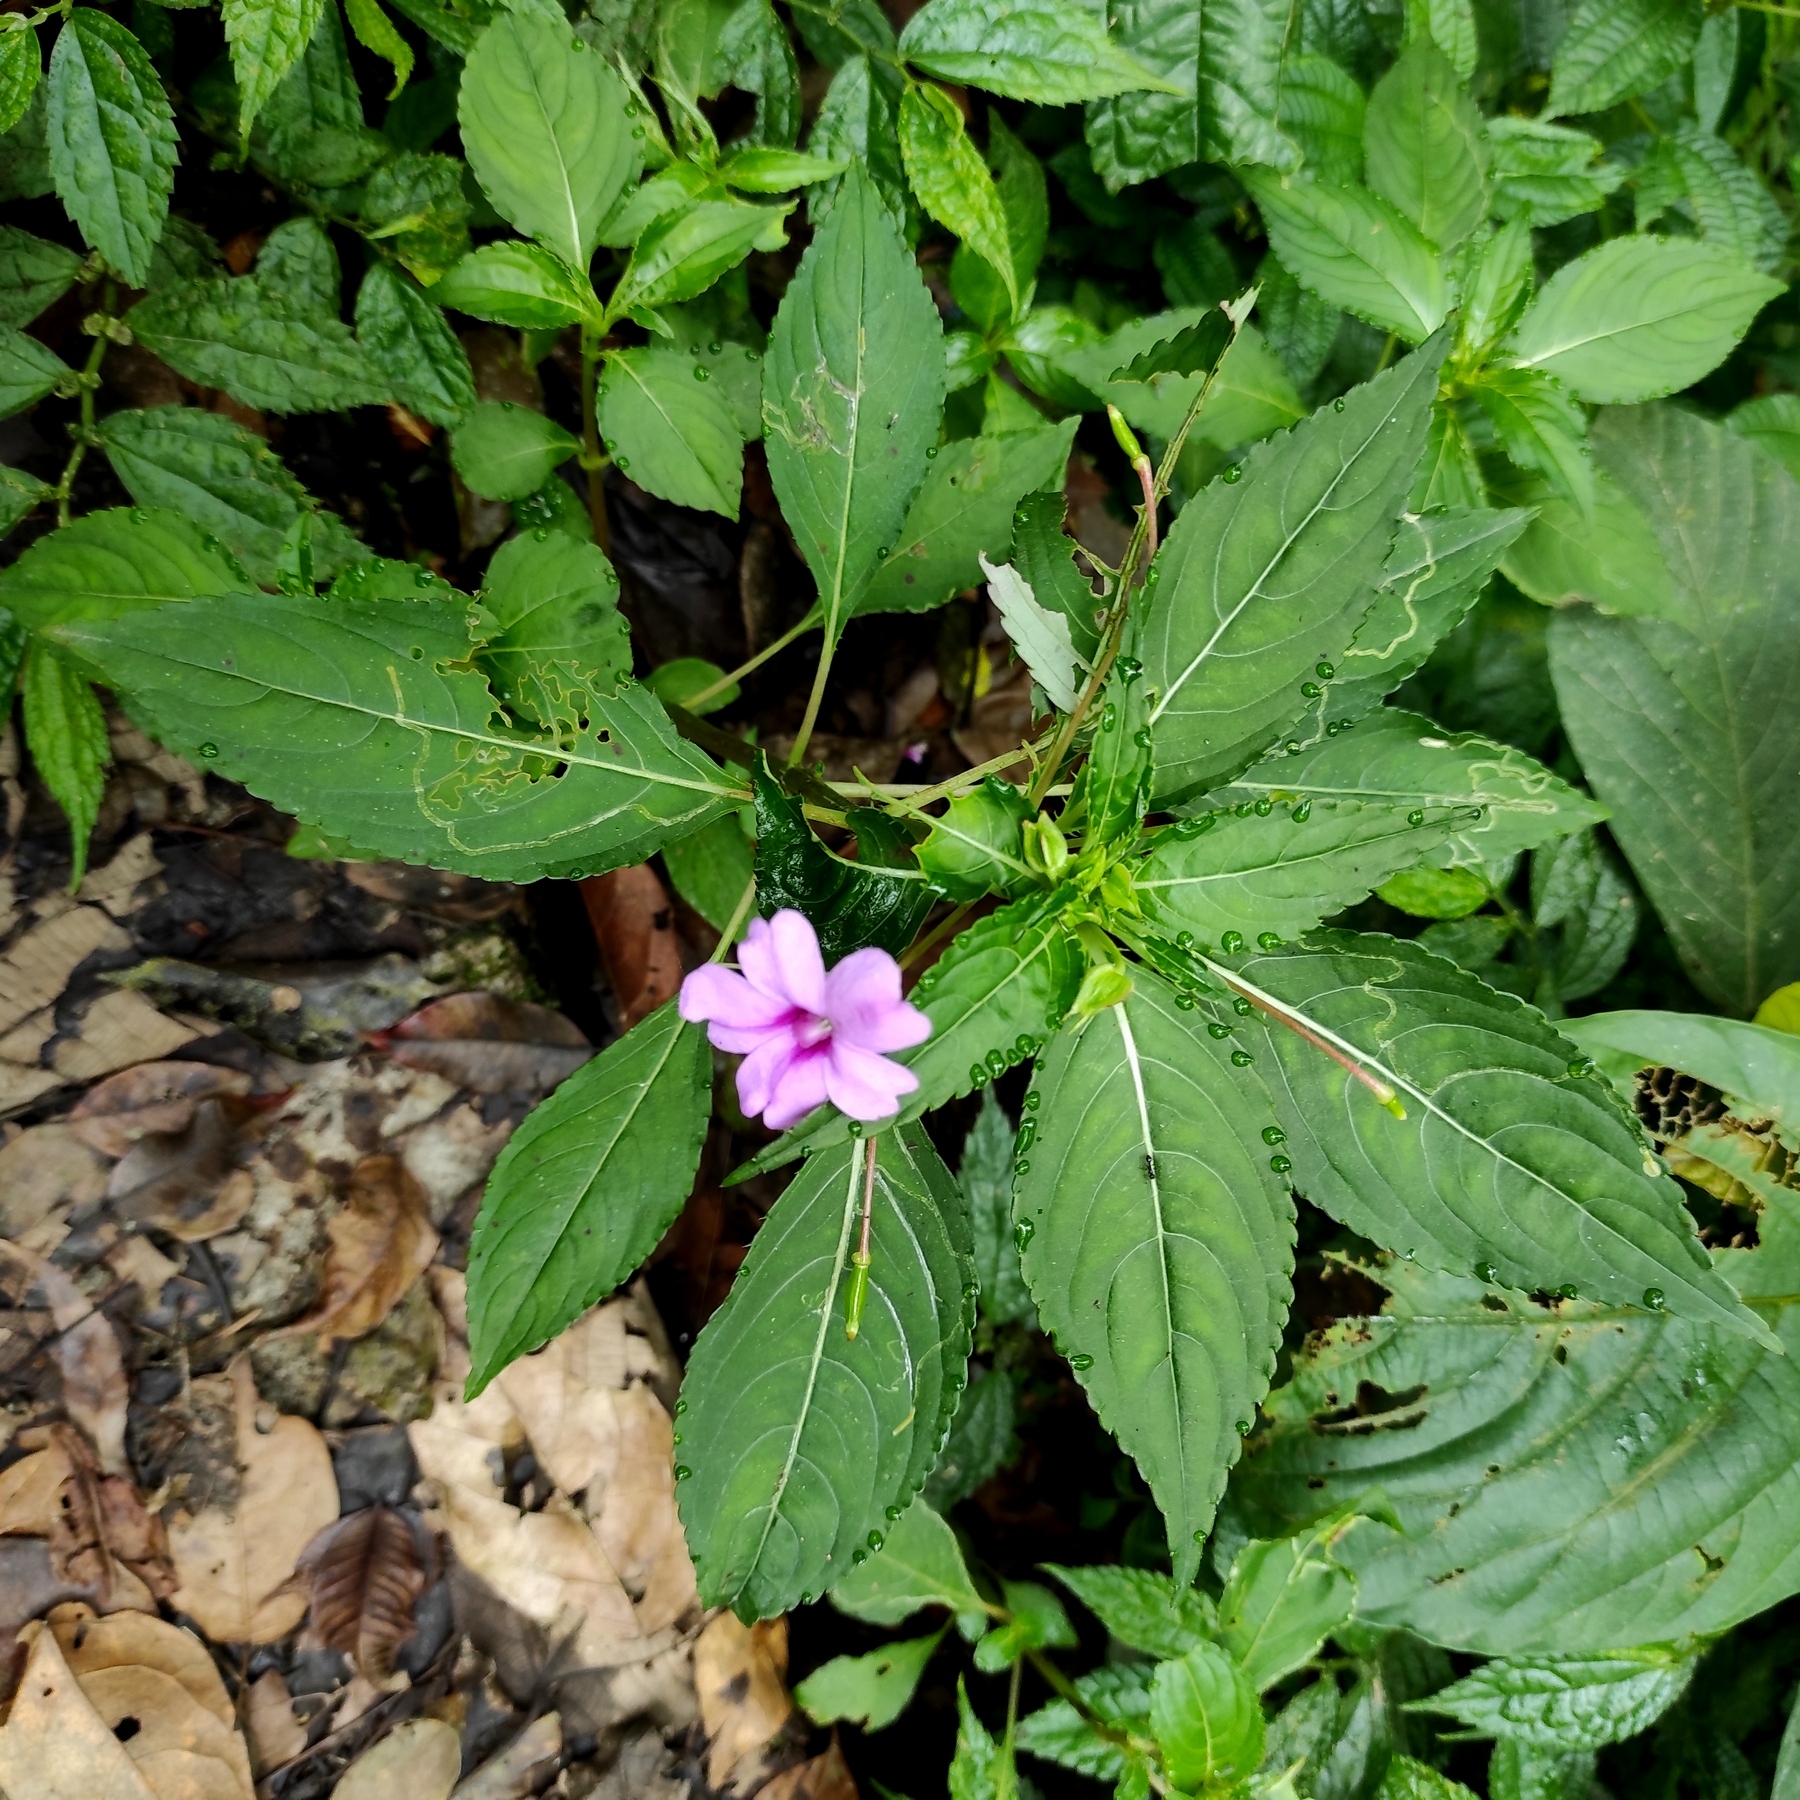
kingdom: Plantae
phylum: Tracheophyta
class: Magnoliopsida
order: Ericales
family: Balsaminaceae
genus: Impatiens
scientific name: Impatiens platypetala
